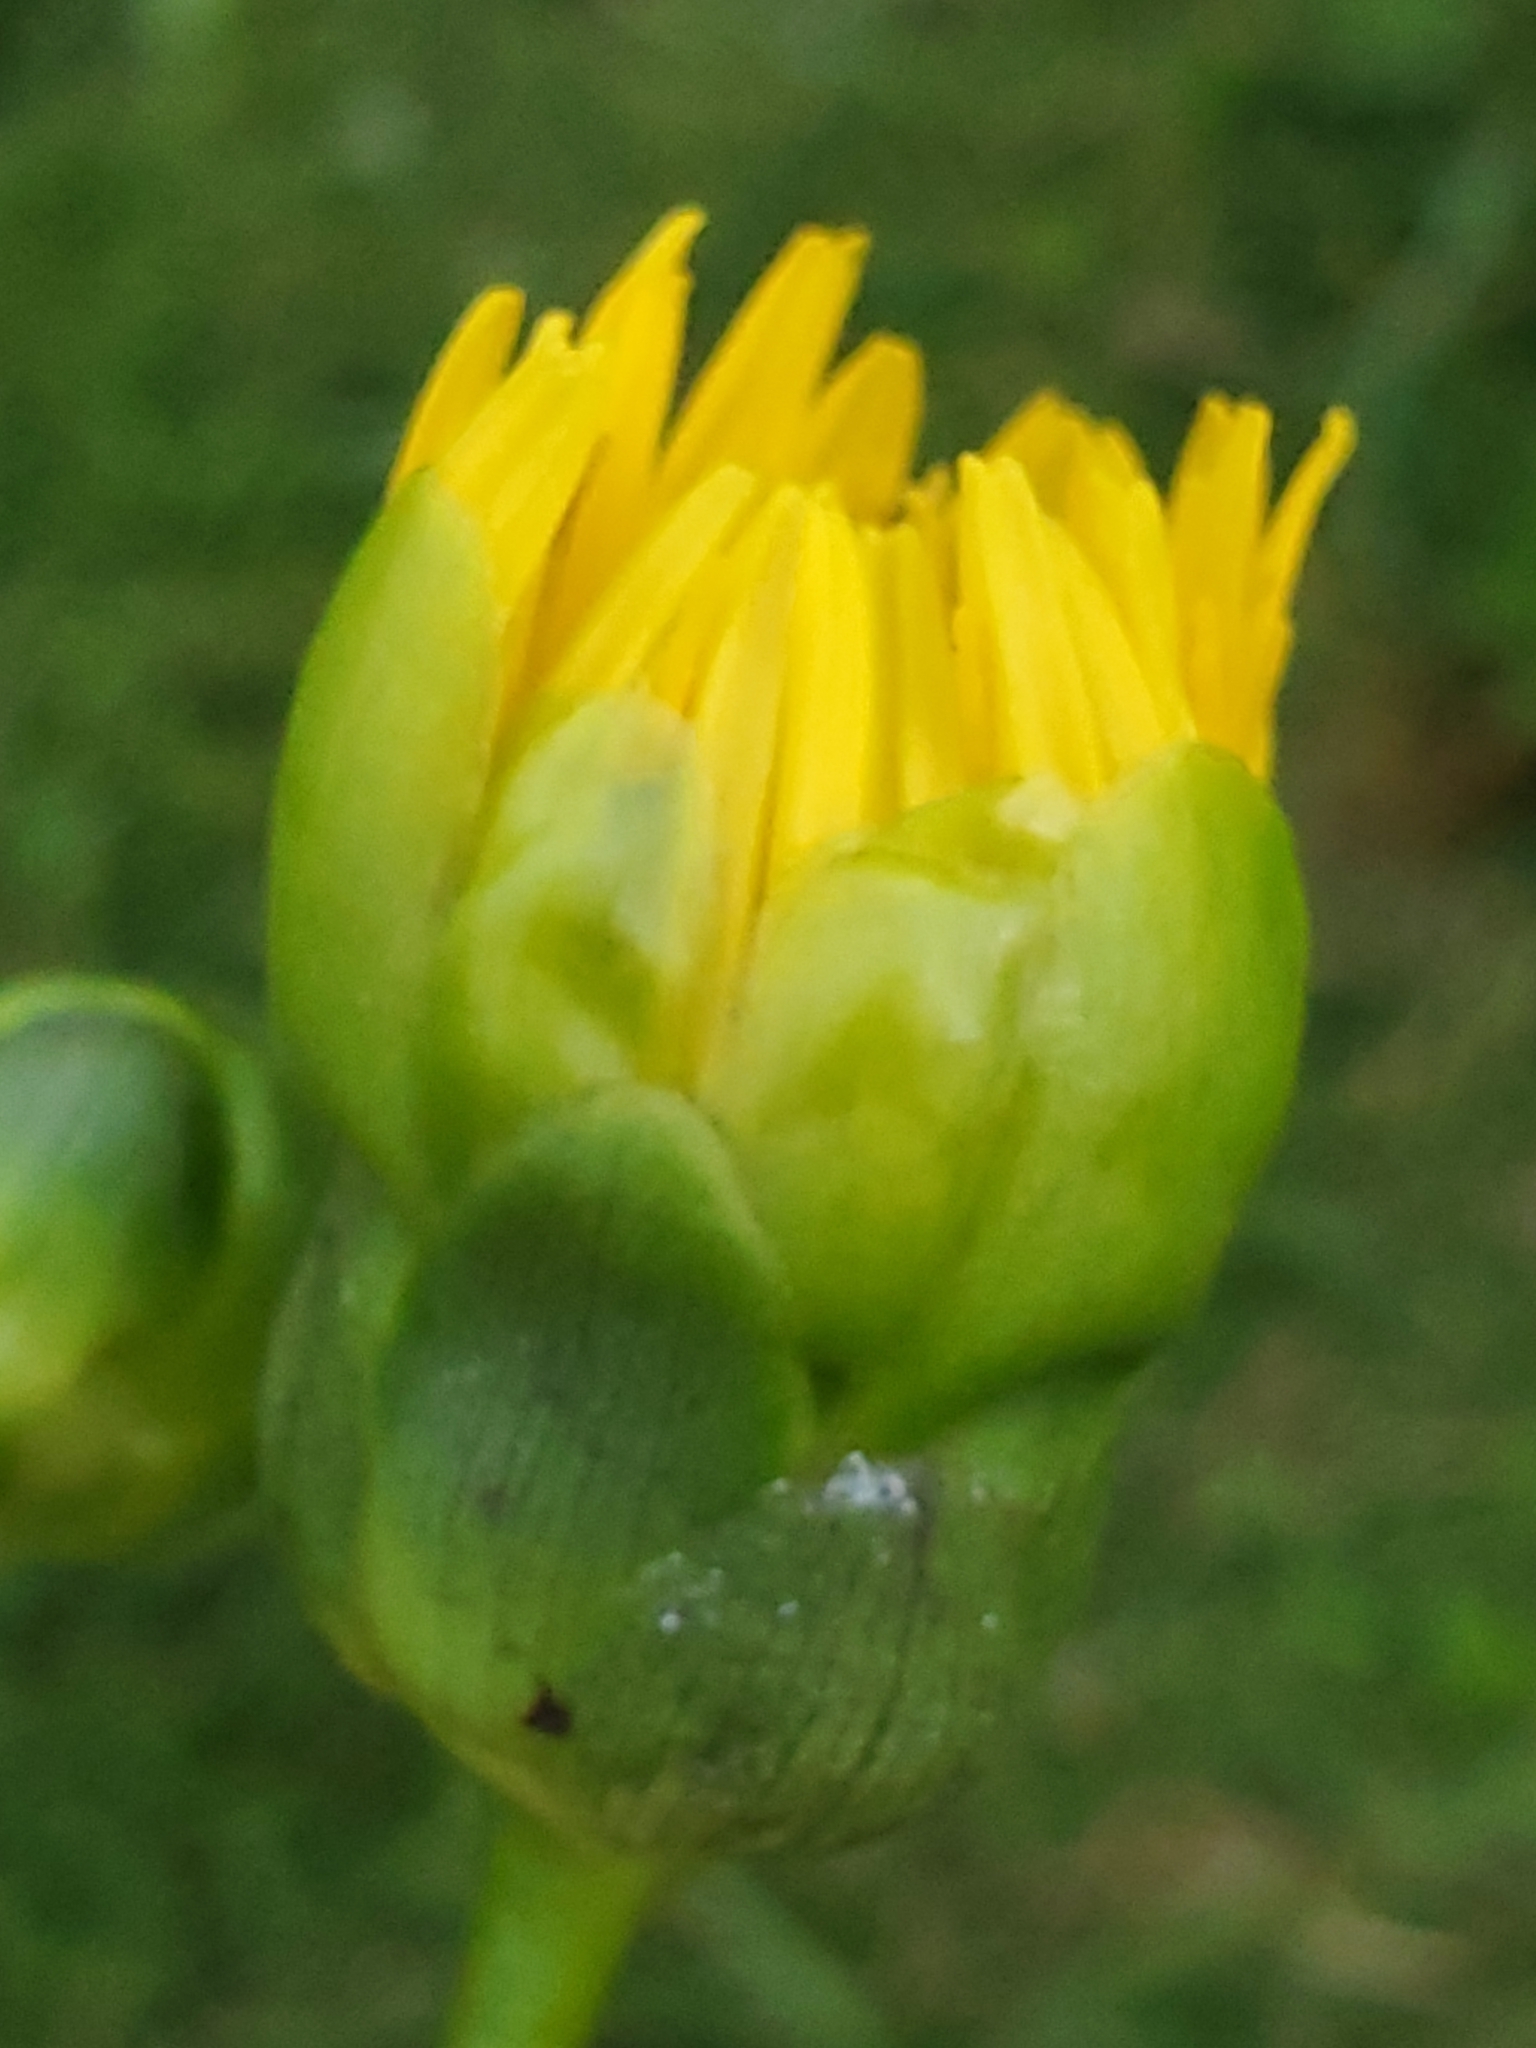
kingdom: Plantae
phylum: Tracheophyta
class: Magnoliopsida
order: Asterales
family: Asteraceae
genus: Silphium
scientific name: Silphium terebinthinaceum
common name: Basal-leaf rosinweed
